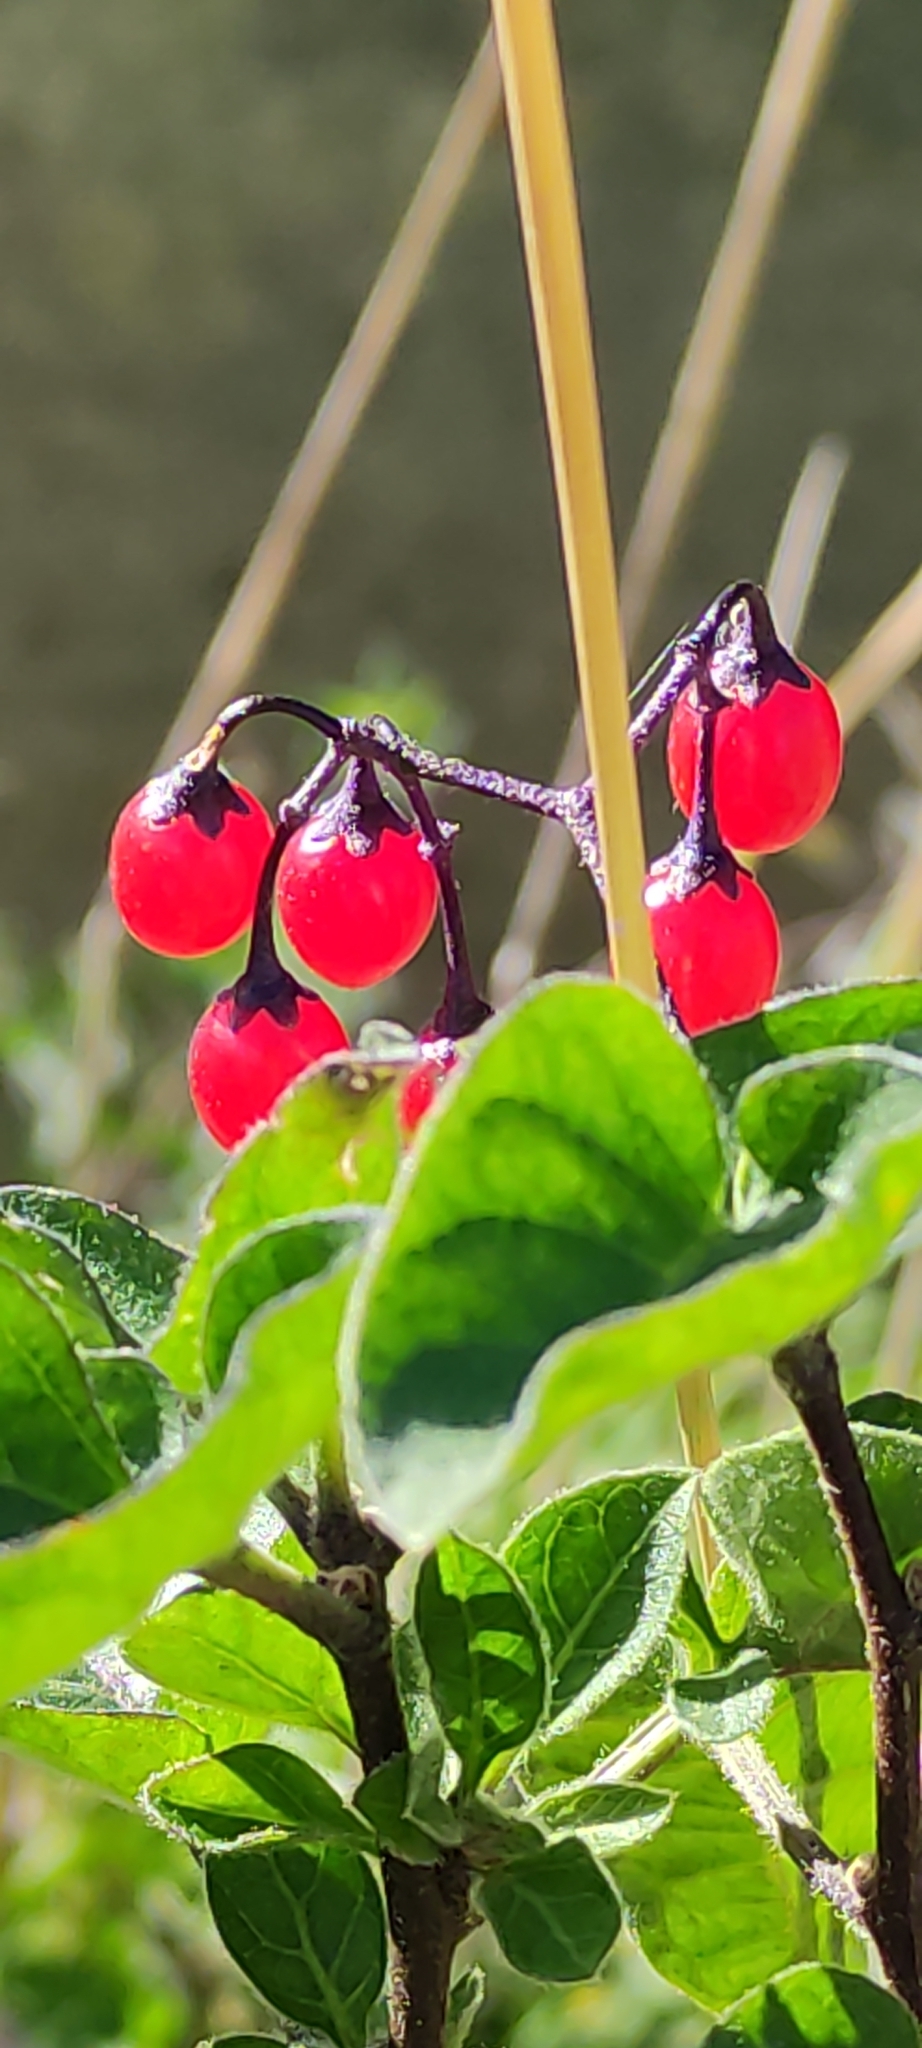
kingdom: Plantae
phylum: Tracheophyta
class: Magnoliopsida
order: Solanales
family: Solanaceae
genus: Solanum
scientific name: Solanum dulcamara
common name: Climbing nightshade
